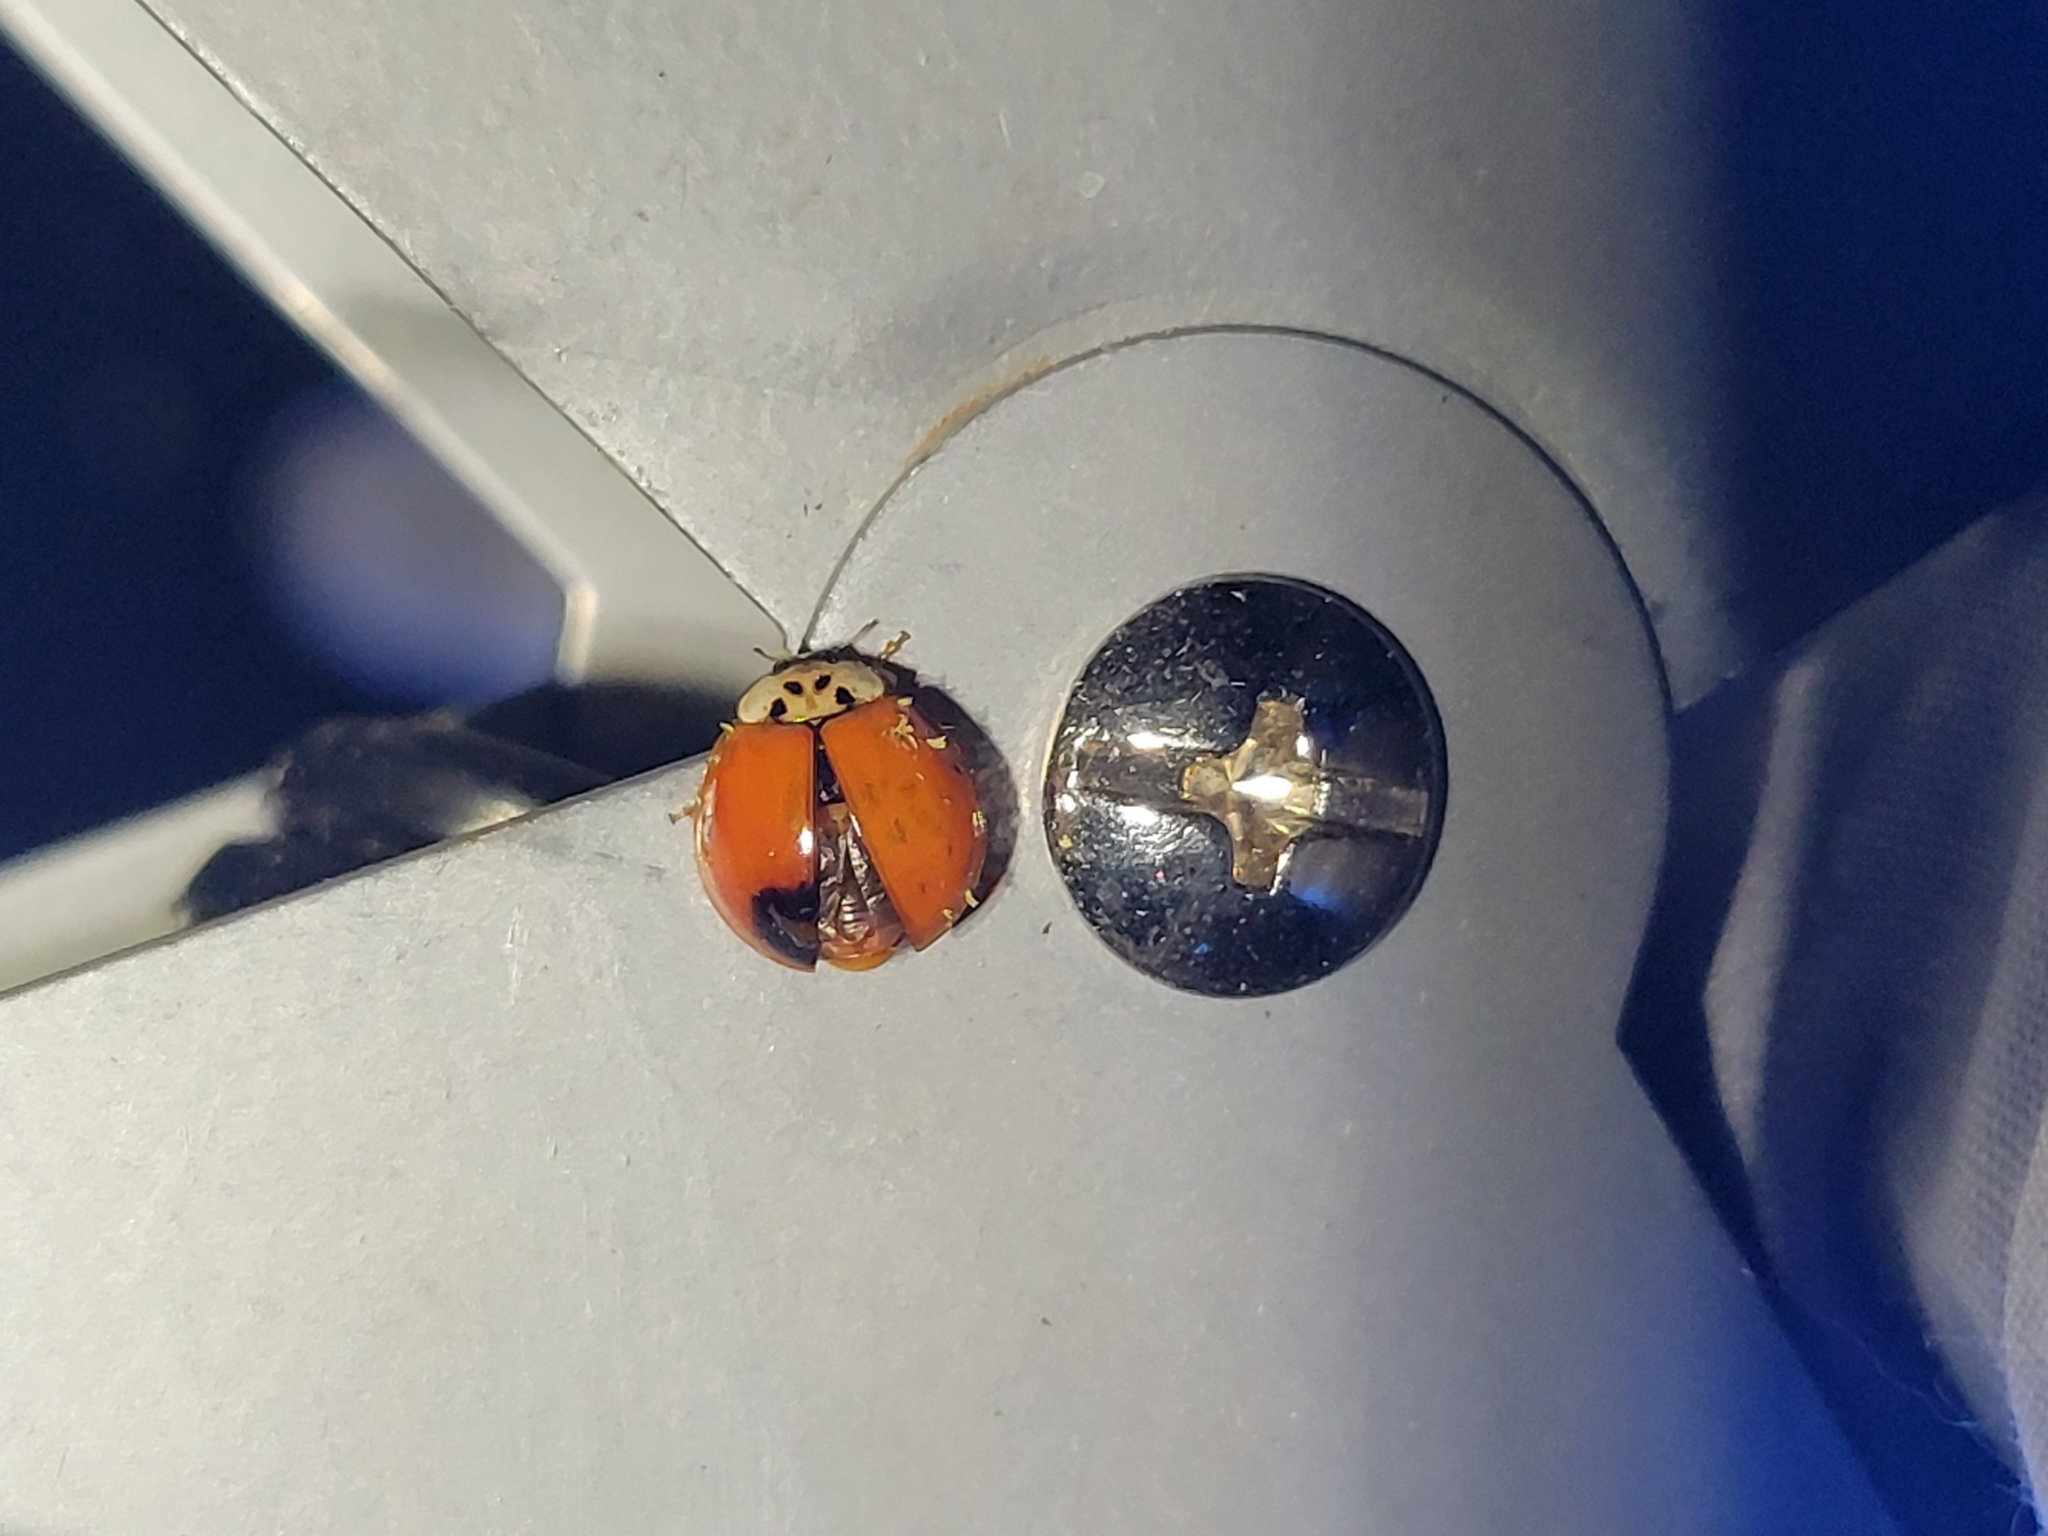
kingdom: Animalia
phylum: Arthropoda
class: Insecta
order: Coleoptera
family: Coccinellidae
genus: Harmonia
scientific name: Harmonia axyridis
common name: Harlequin ladybird
